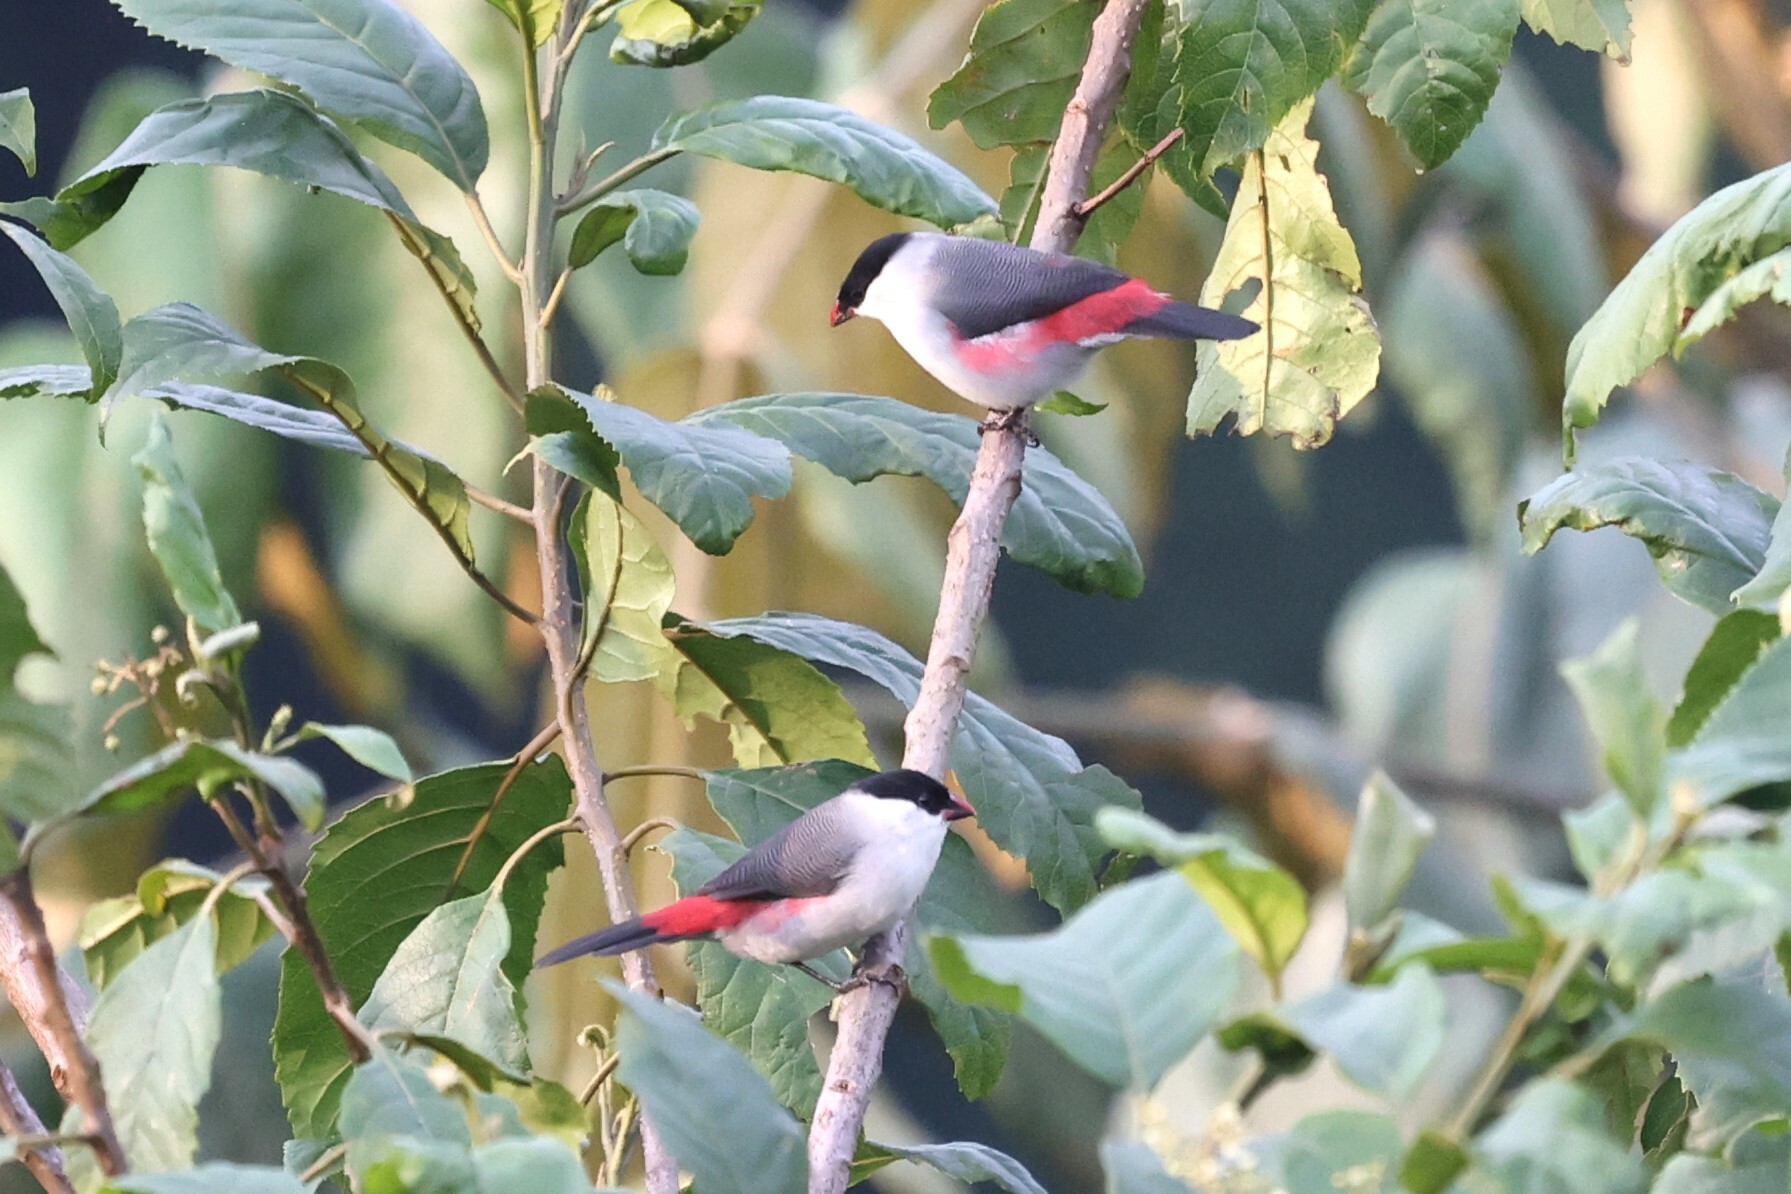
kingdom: Animalia
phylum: Chordata
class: Aves
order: Passeriformes
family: Estrildidae
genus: Estrilda
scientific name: Estrilda nonnula
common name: Black-crowned waxbill
